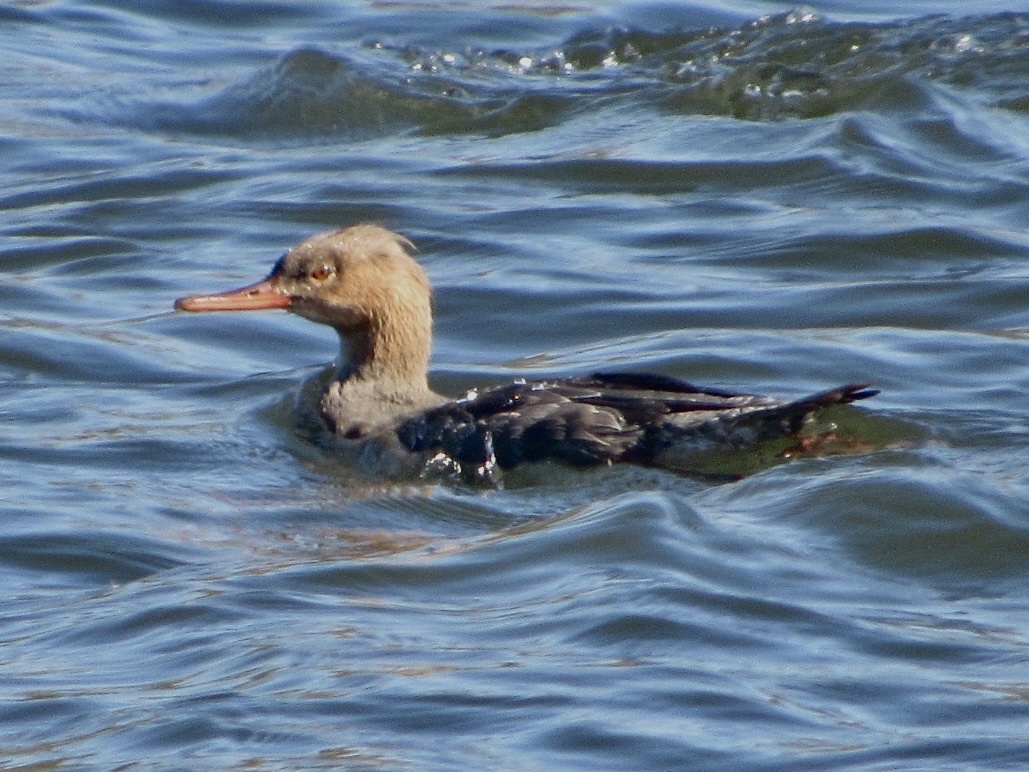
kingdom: Animalia
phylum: Chordata
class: Aves
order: Anseriformes
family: Anatidae
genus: Mergus
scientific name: Mergus serrator
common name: Red-breasted merganser
